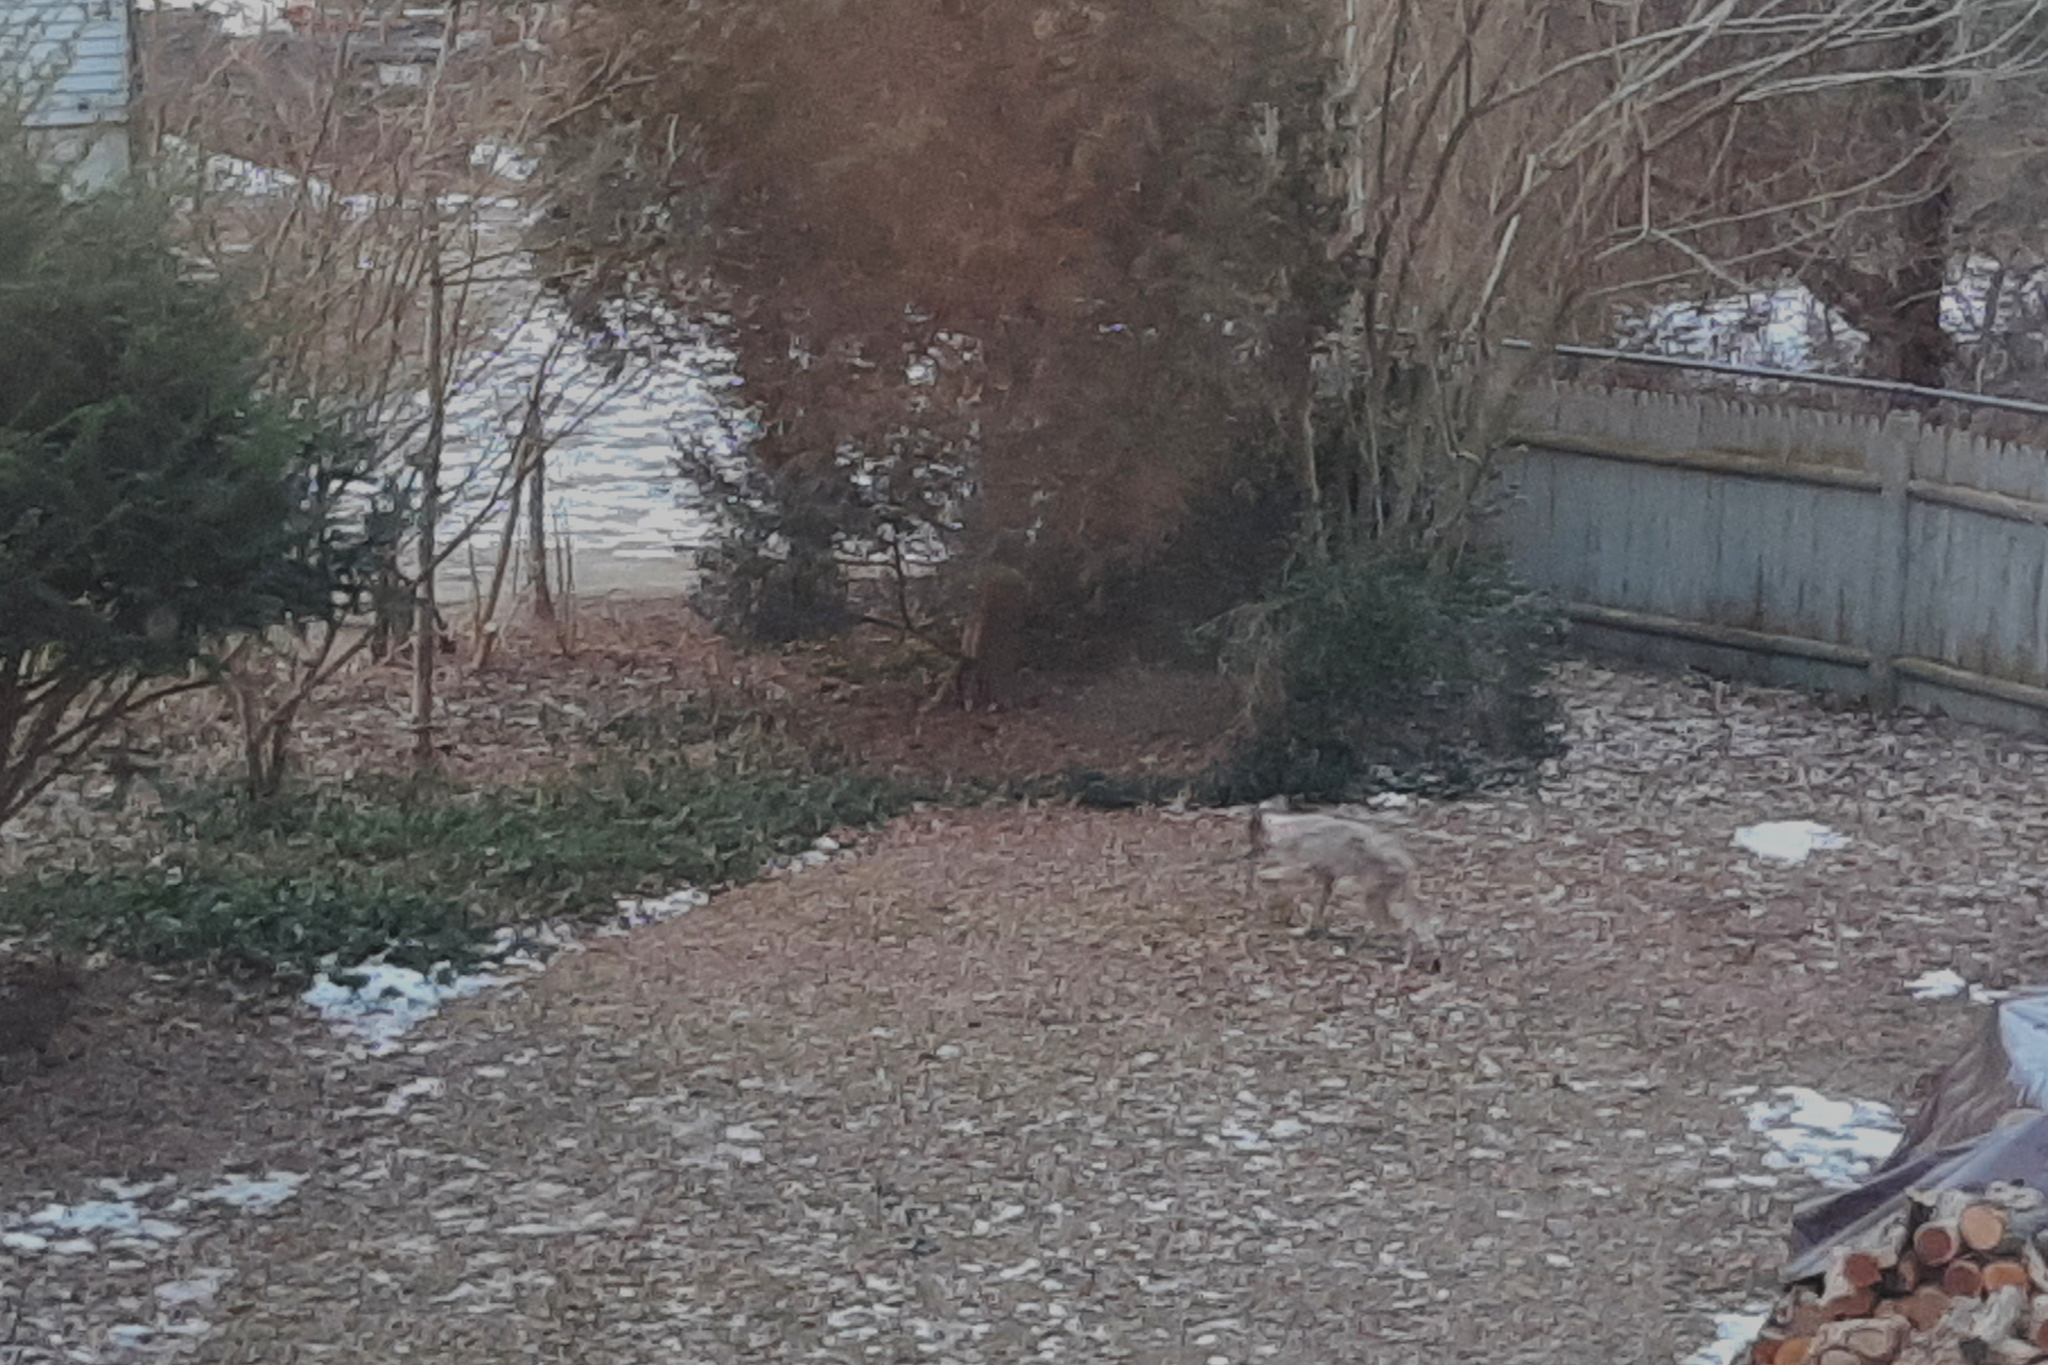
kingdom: Animalia
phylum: Chordata
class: Mammalia
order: Carnivora
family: Canidae
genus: Canis
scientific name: Canis latrans
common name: Coyote
